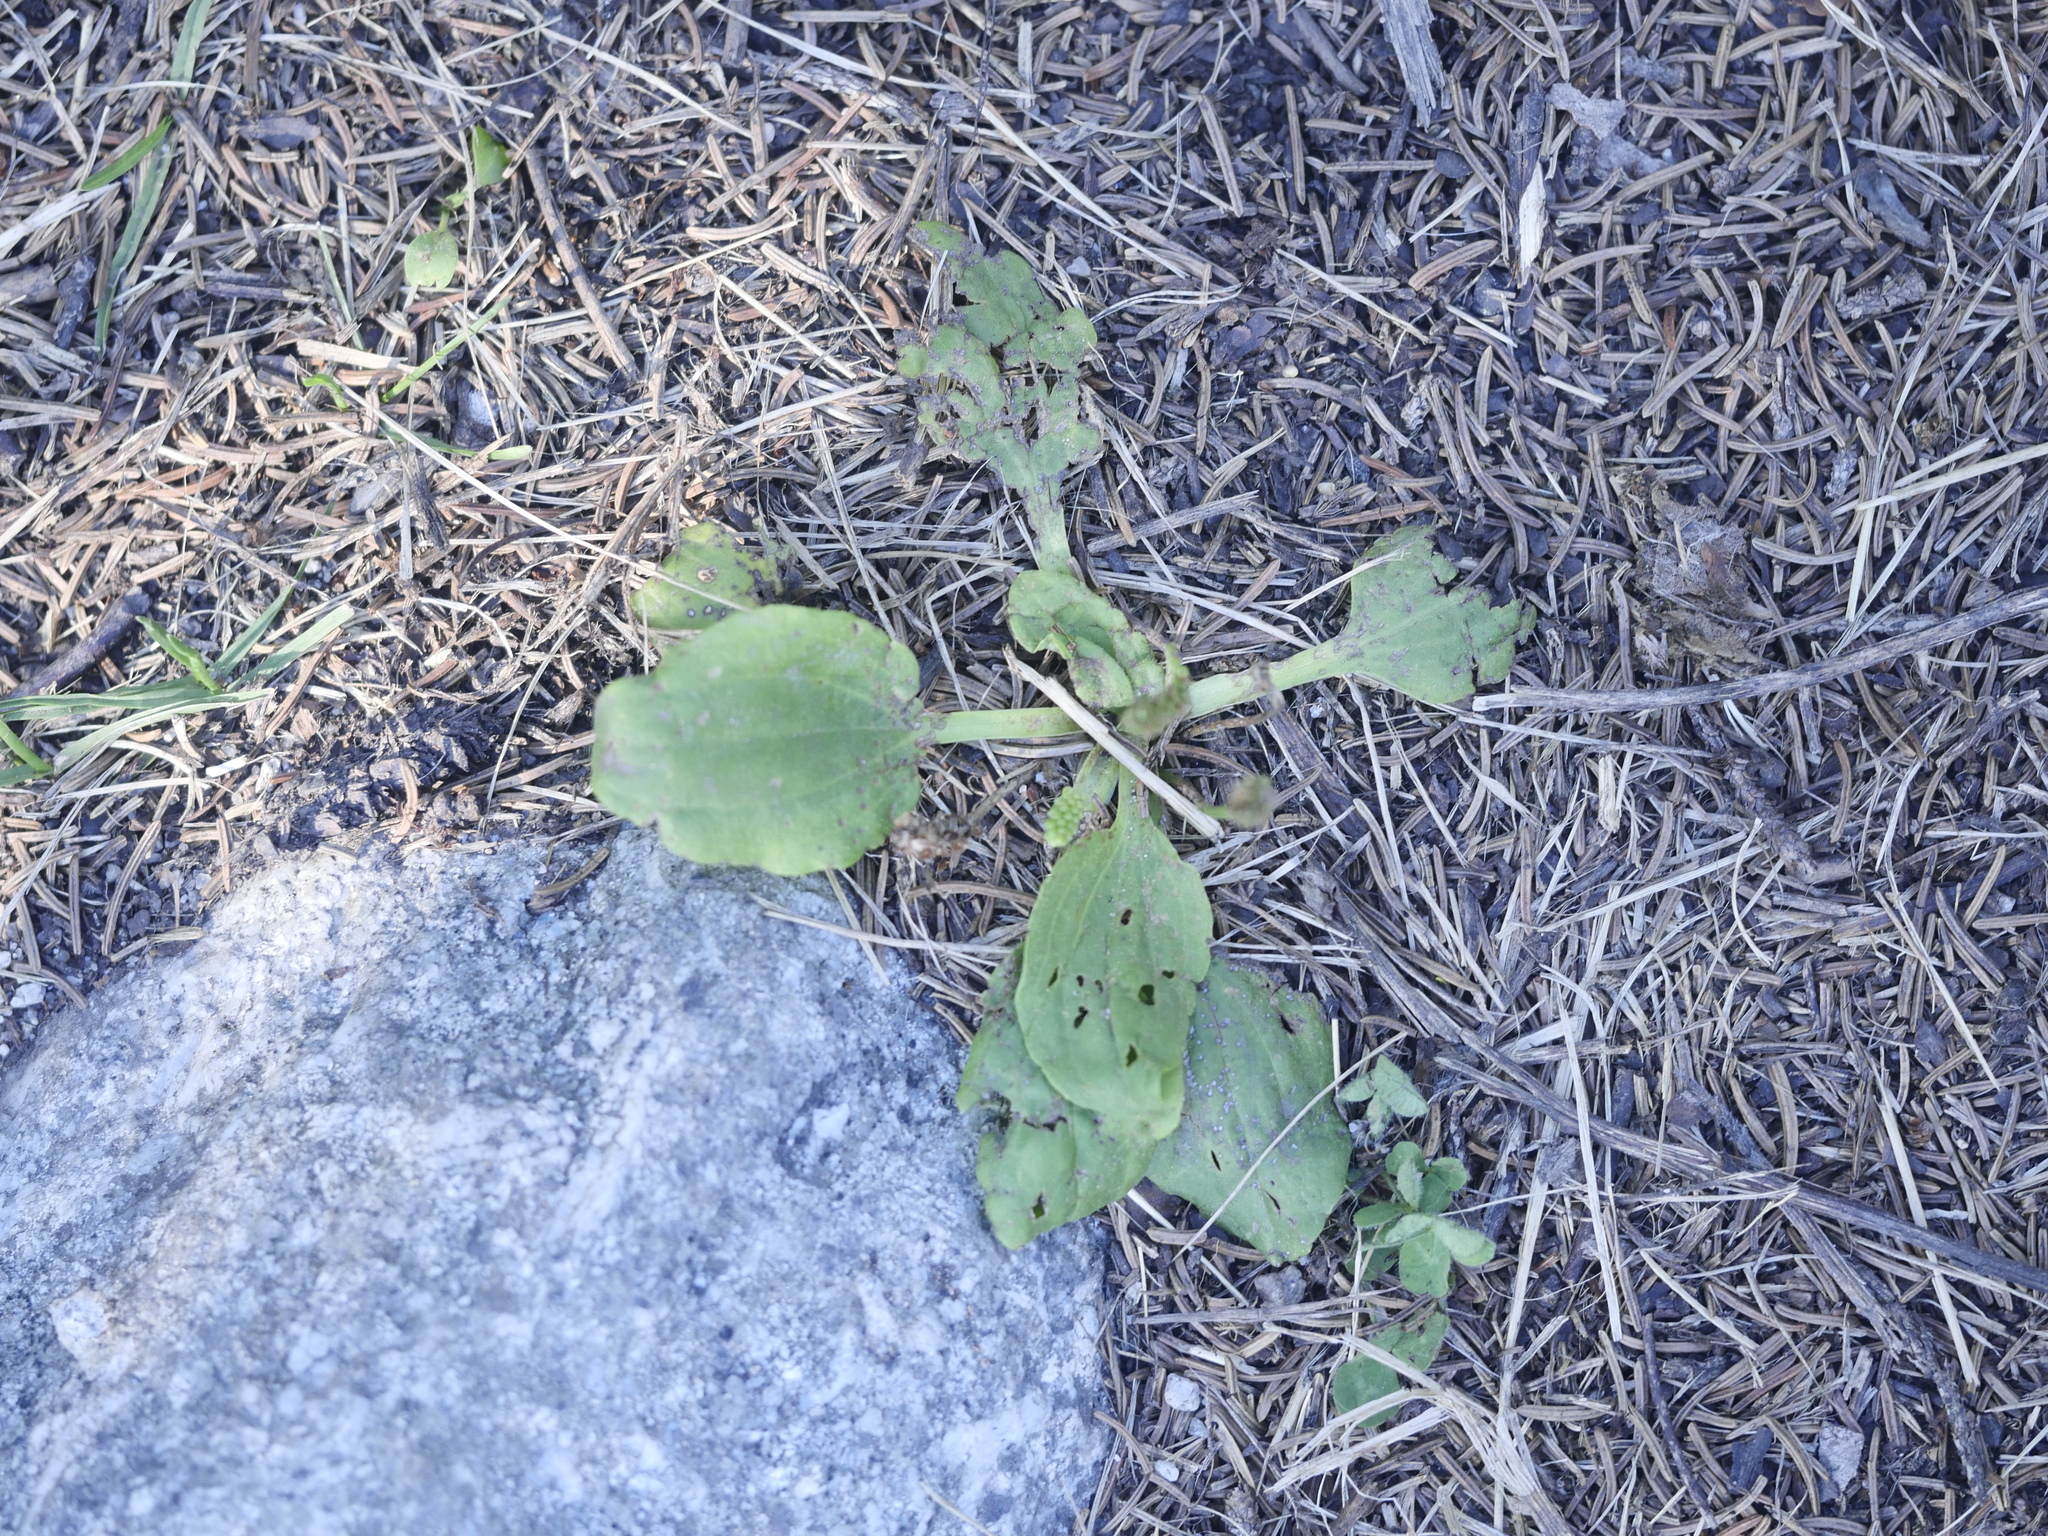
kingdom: Plantae
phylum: Tracheophyta
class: Magnoliopsida
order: Lamiales
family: Plantaginaceae
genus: Plantago
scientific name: Plantago major
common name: Common plantain
